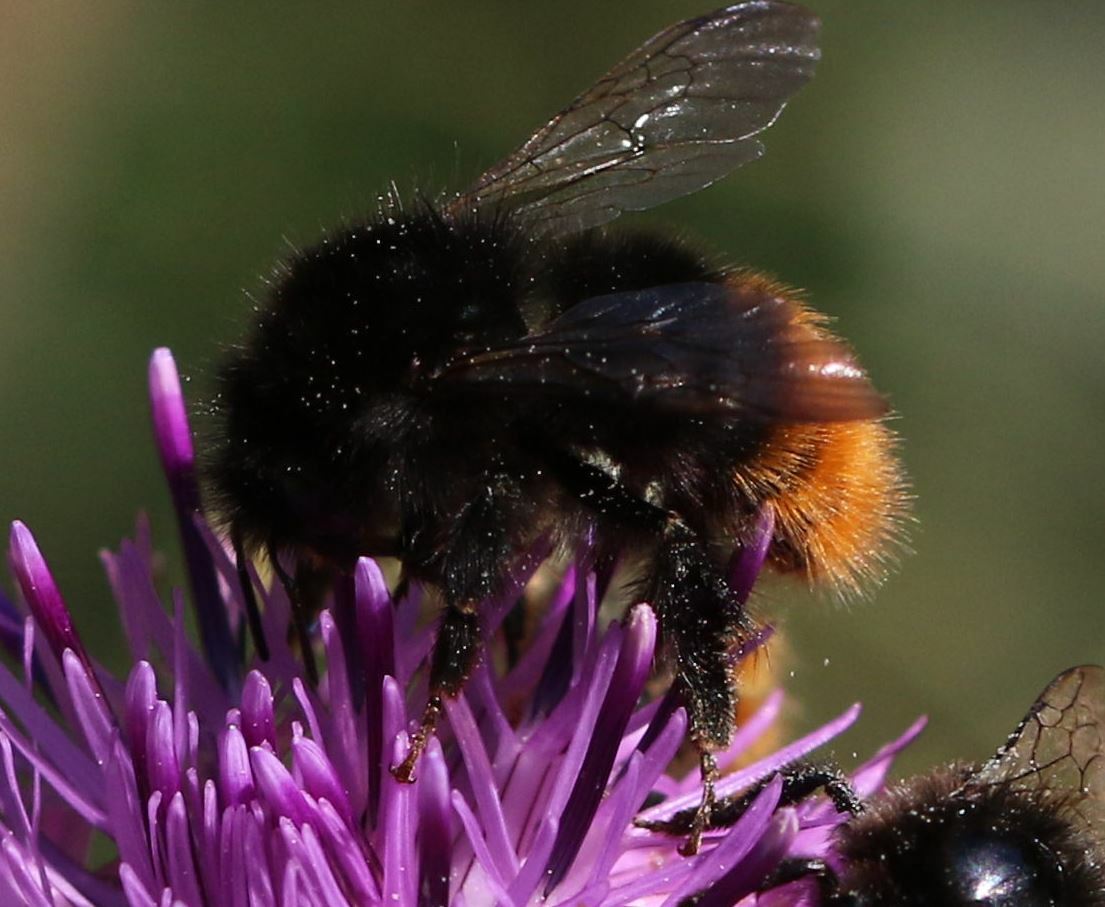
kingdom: Animalia
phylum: Arthropoda
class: Insecta
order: Hymenoptera
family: Apidae
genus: Bombus
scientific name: Bombus wurflenii
